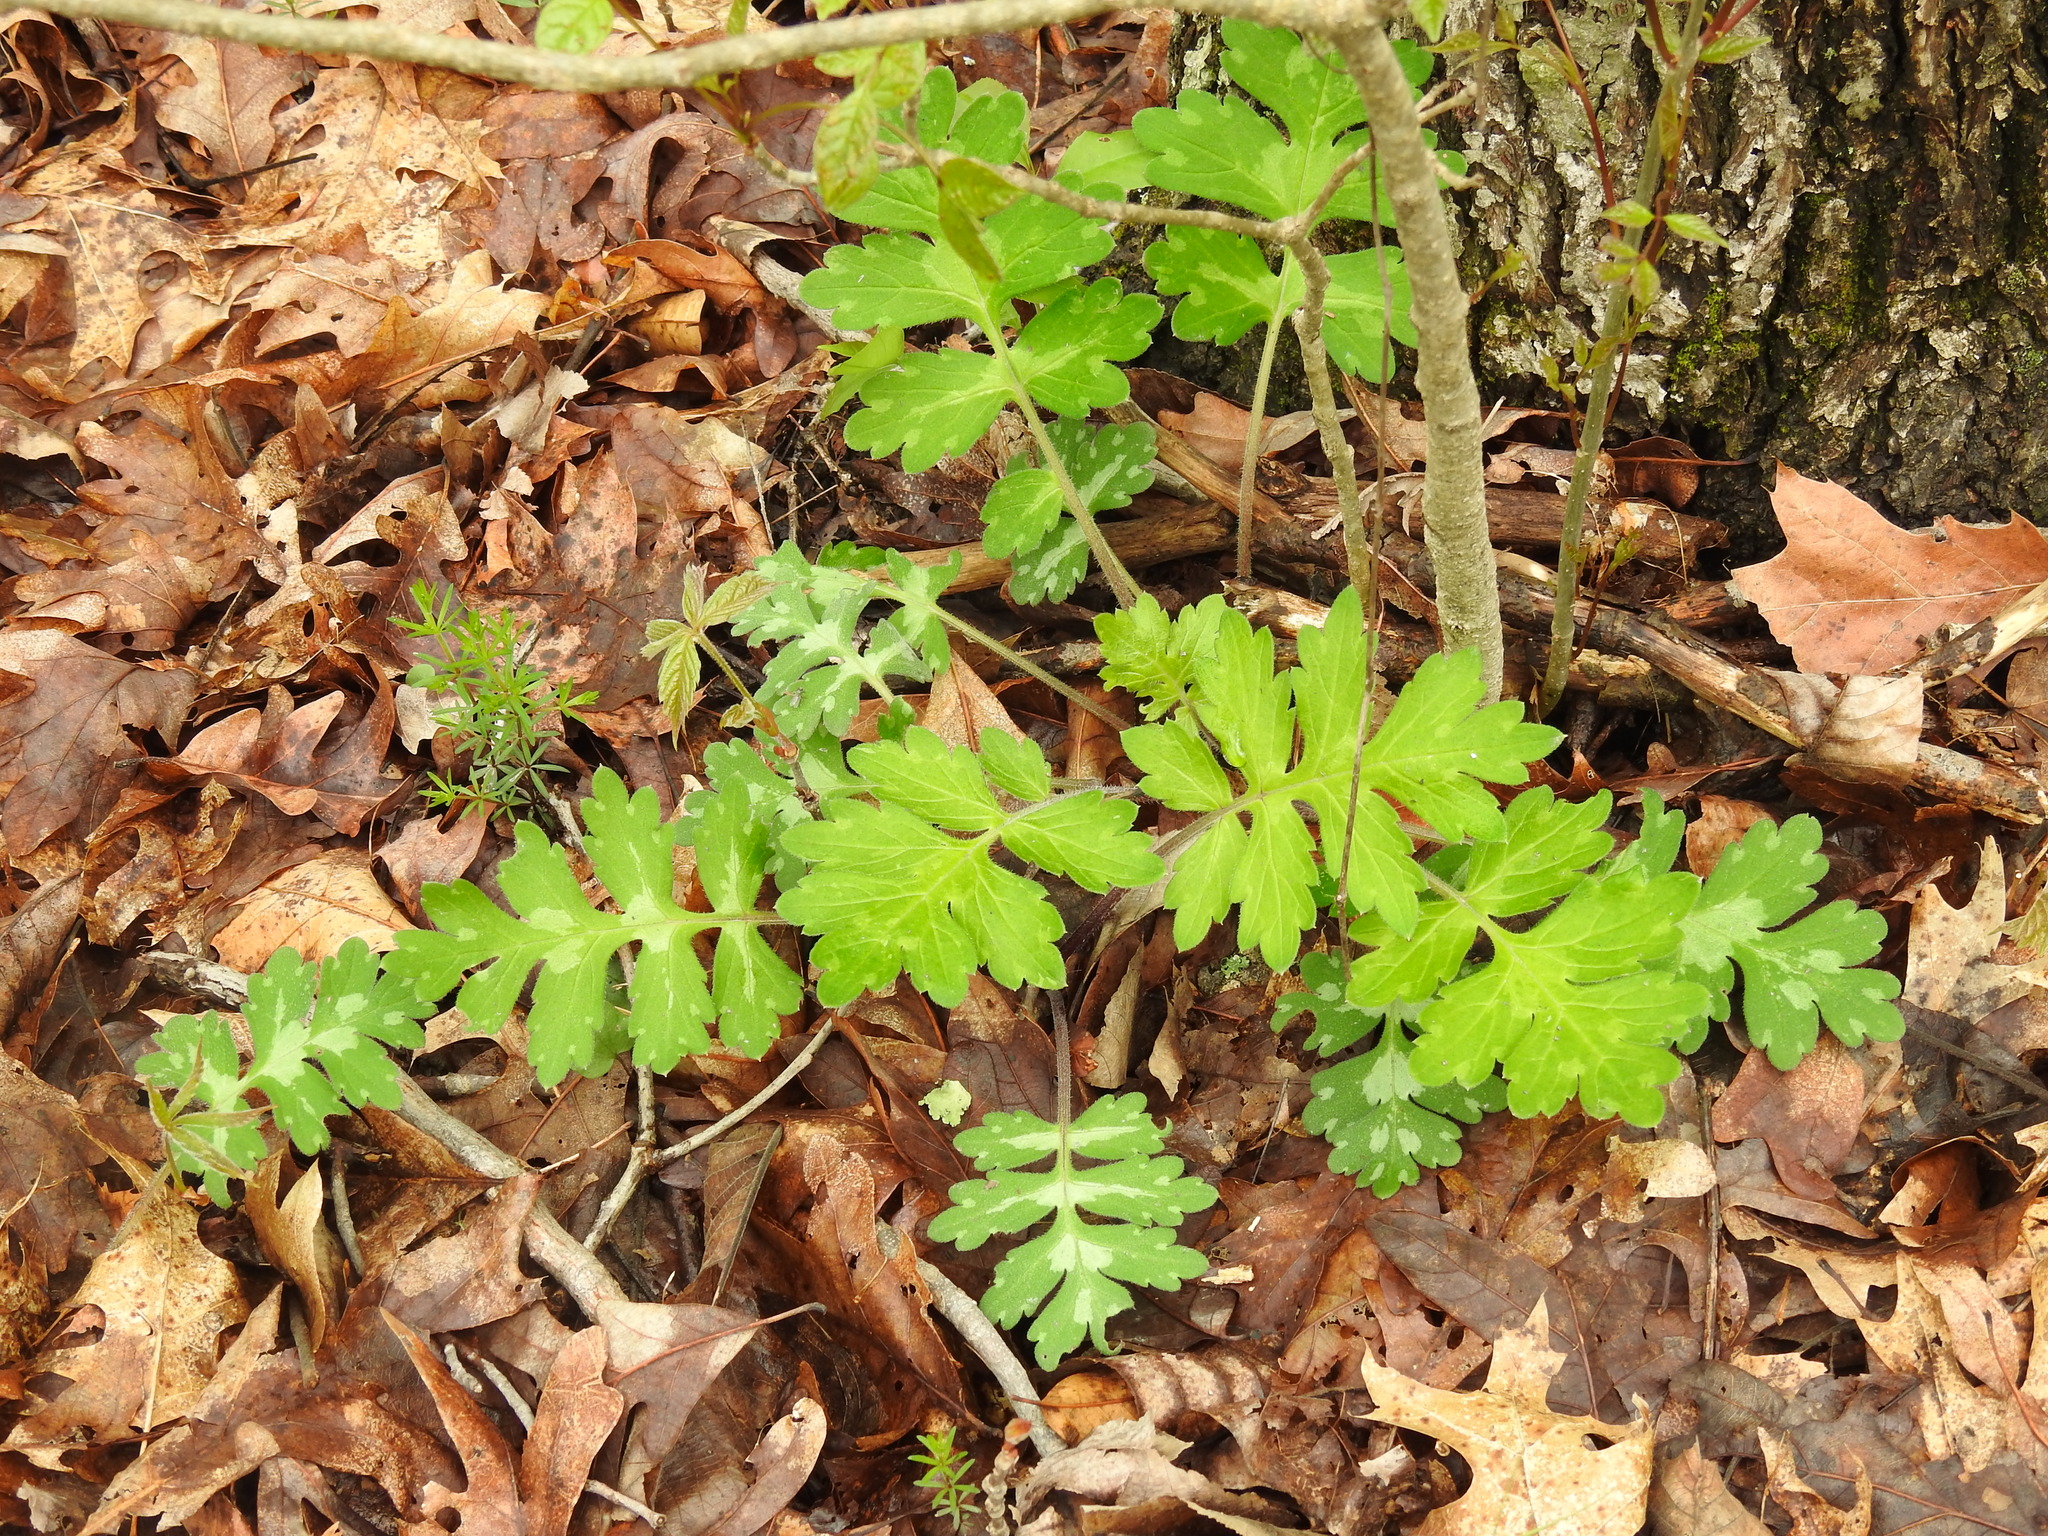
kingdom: Plantae
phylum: Tracheophyta
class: Magnoliopsida
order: Boraginales
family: Hydrophyllaceae
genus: Hydrophyllum
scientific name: Hydrophyllum macrophyllum
